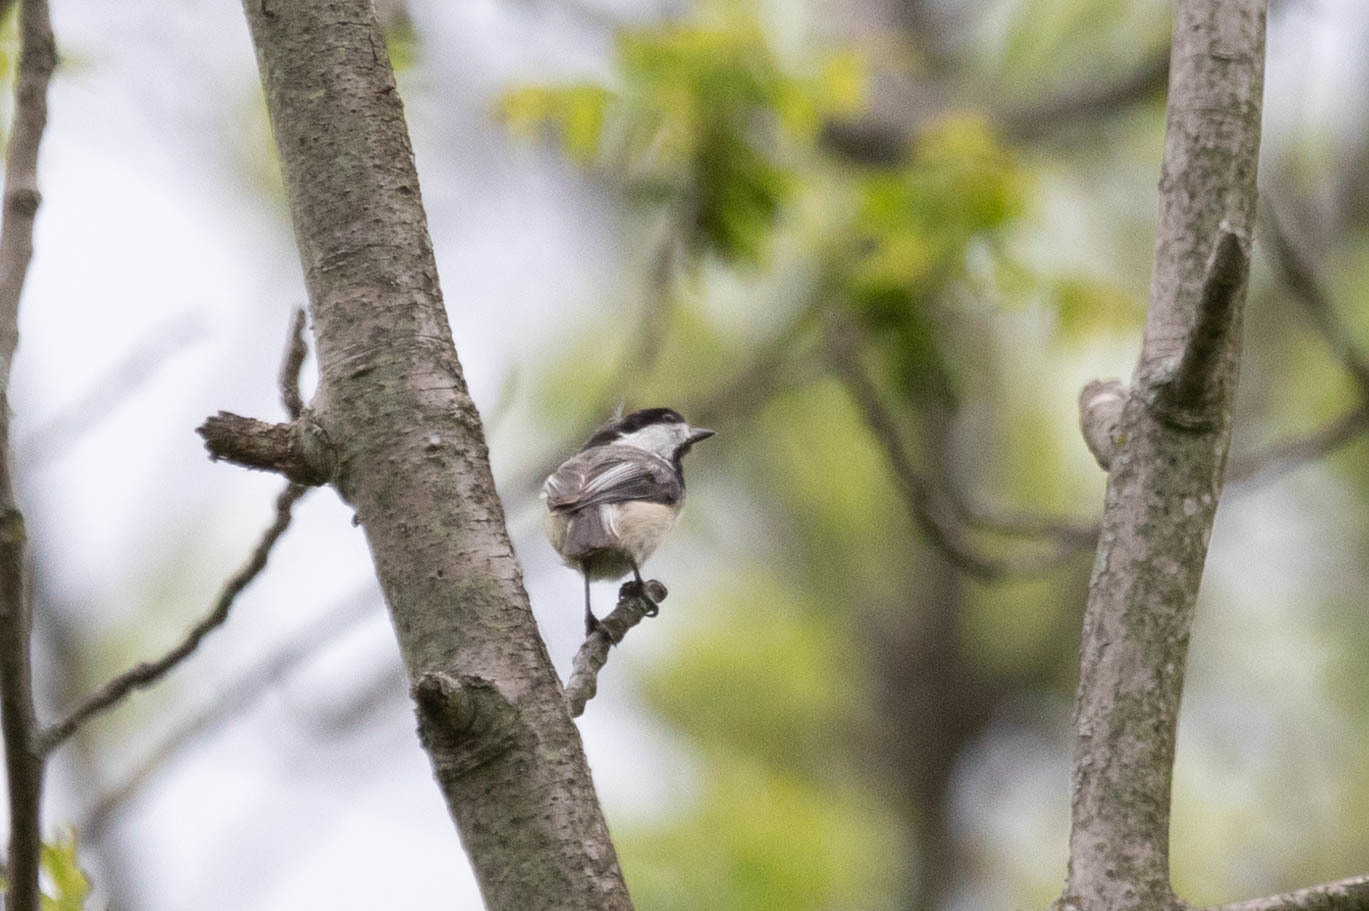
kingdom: Animalia
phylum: Chordata
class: Aves
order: Passeriformes
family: Paridae
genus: Poecile
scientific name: Poecile atricapillus
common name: Black-capped chickadee
